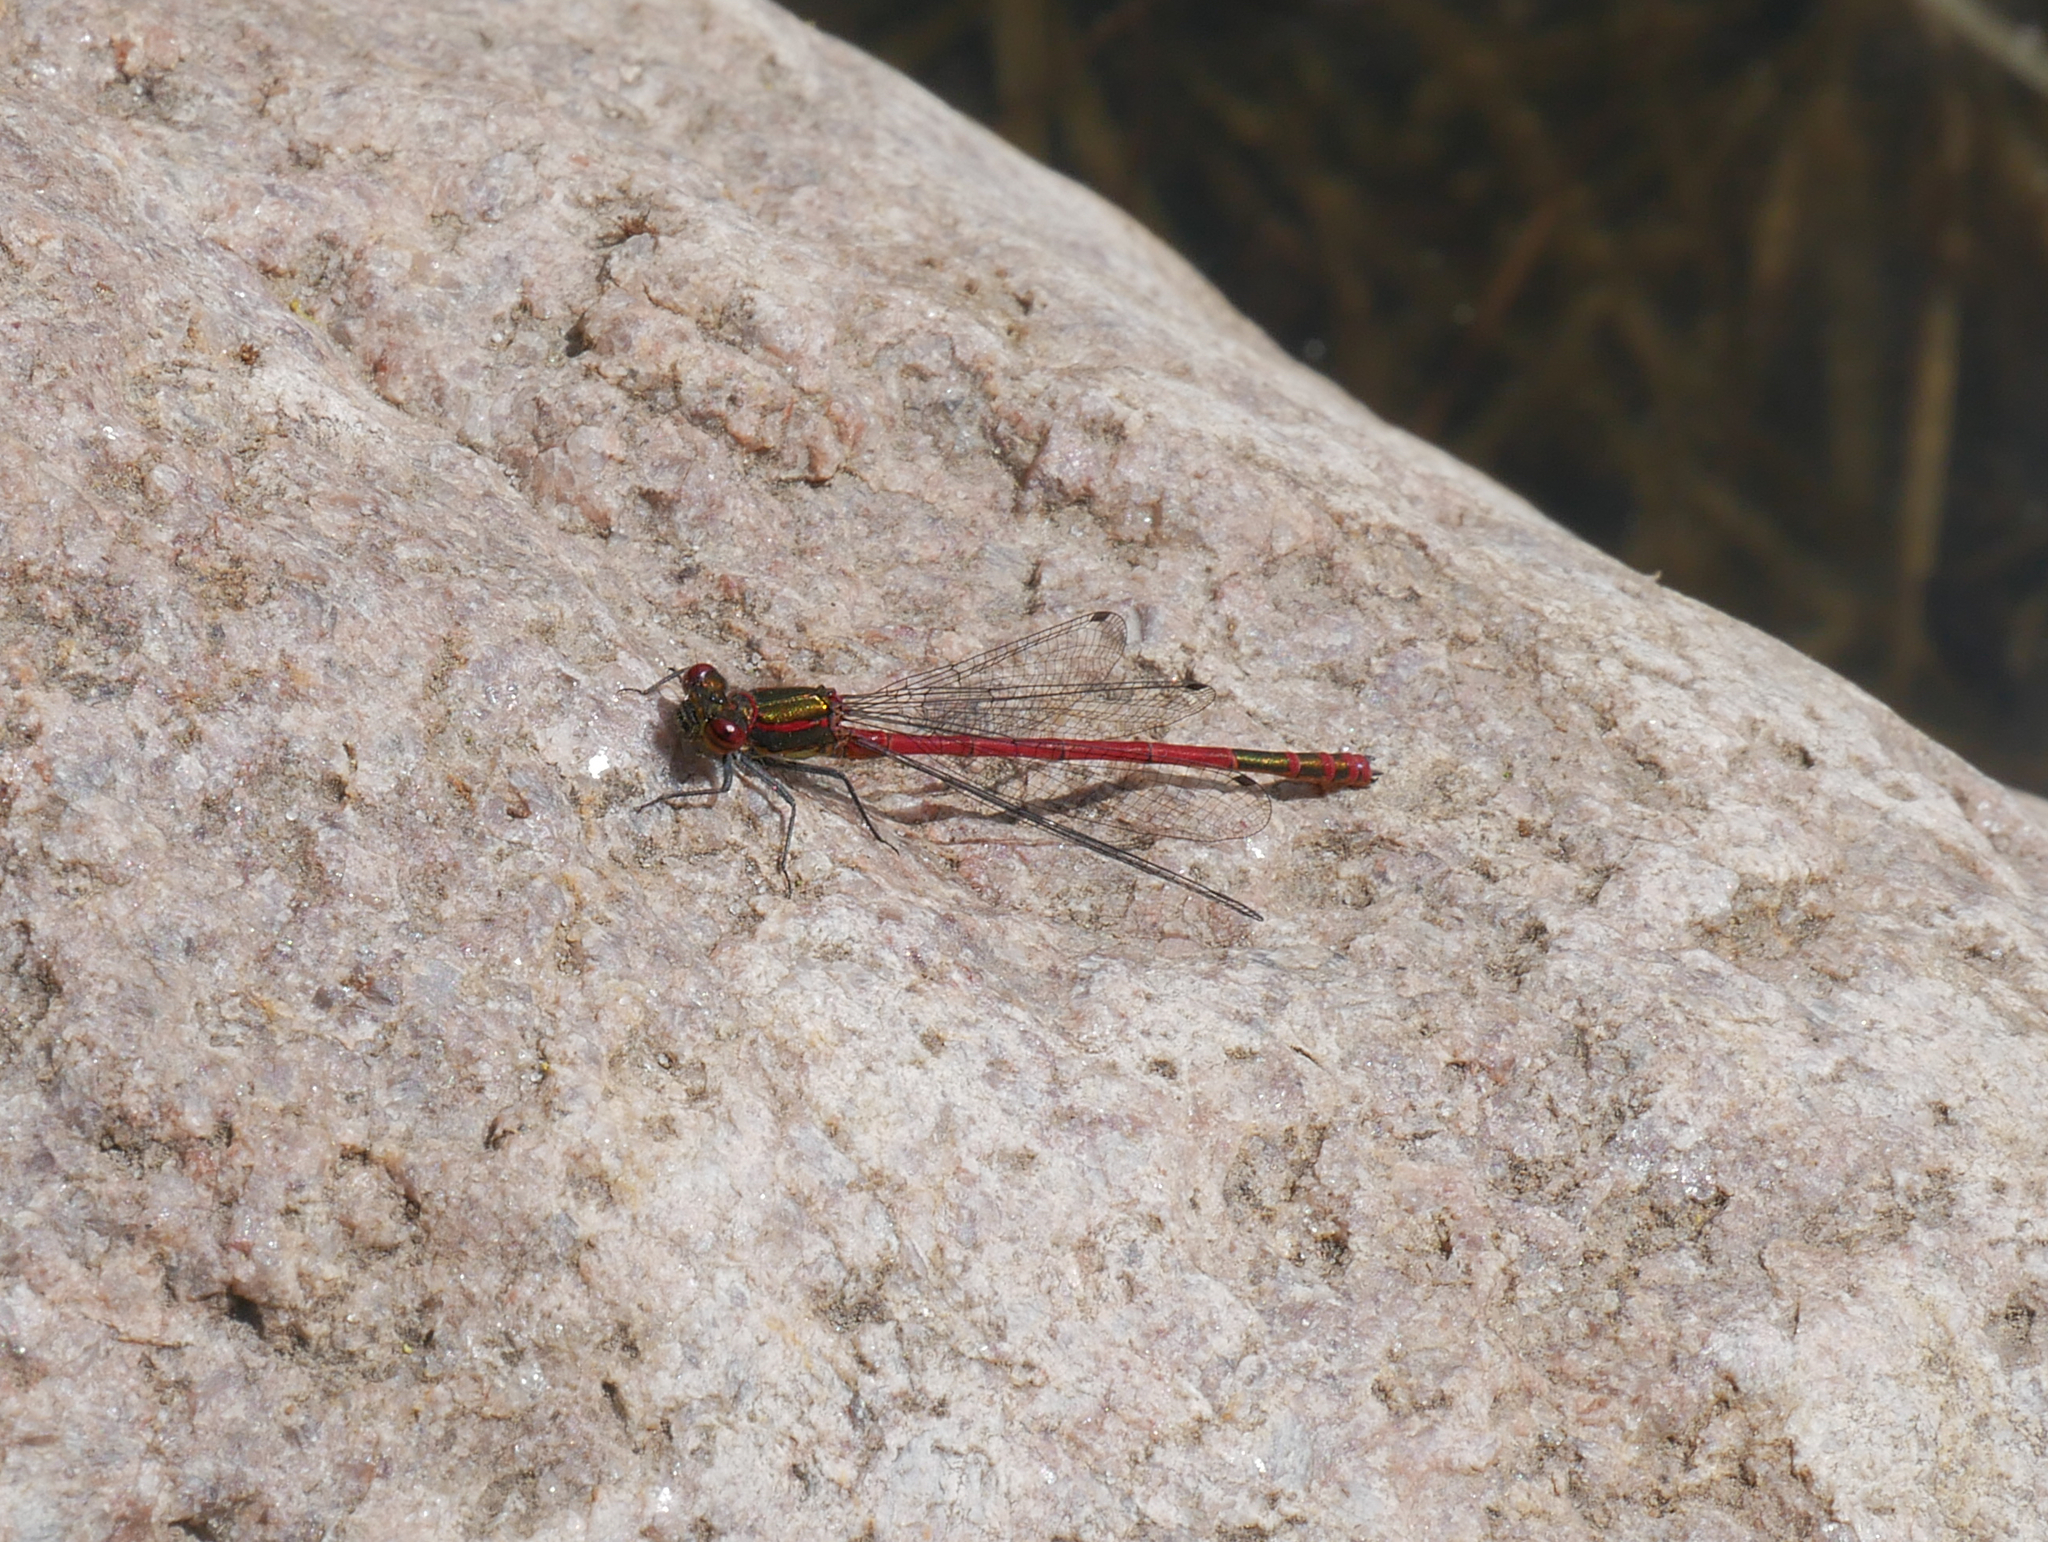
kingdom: Animalia
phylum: Arthropoda
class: Insecta
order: Odonata
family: Coenagrionidae
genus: Pyrrhosoma
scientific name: Pyrrhosoma nymphula
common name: Large red damsel
